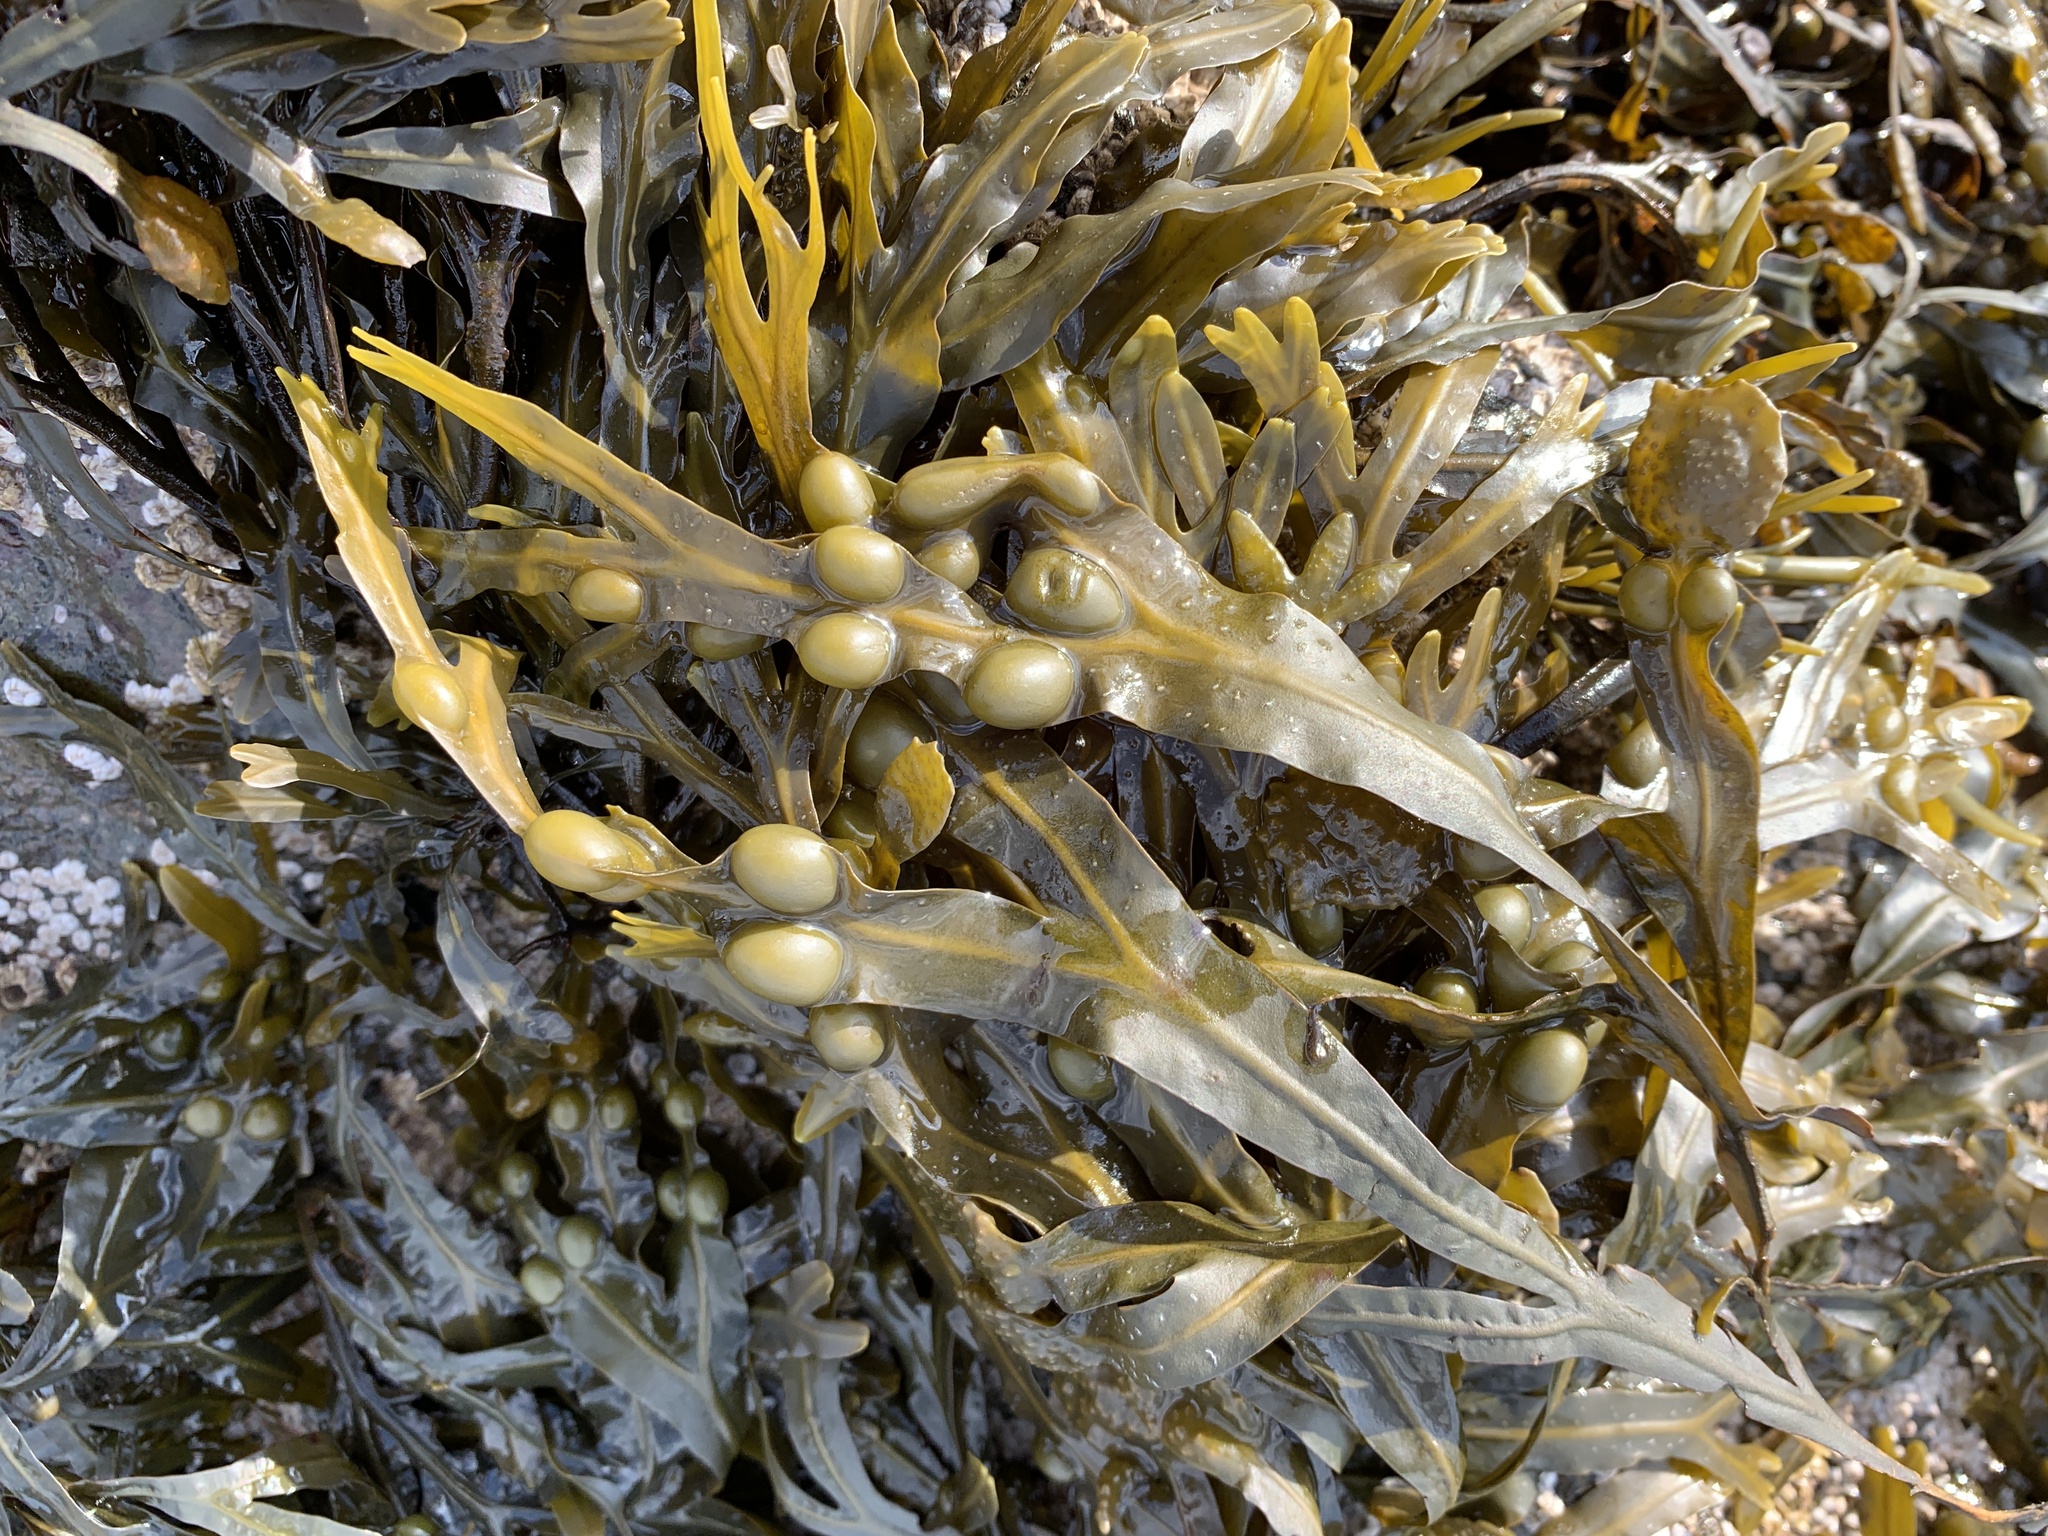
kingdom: Chromista
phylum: Ochrophyta
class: Phaeophyceae
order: Fucales
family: Fucaceae
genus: Fucus
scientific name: Fucus vesiculosus
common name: Bladder wrack
